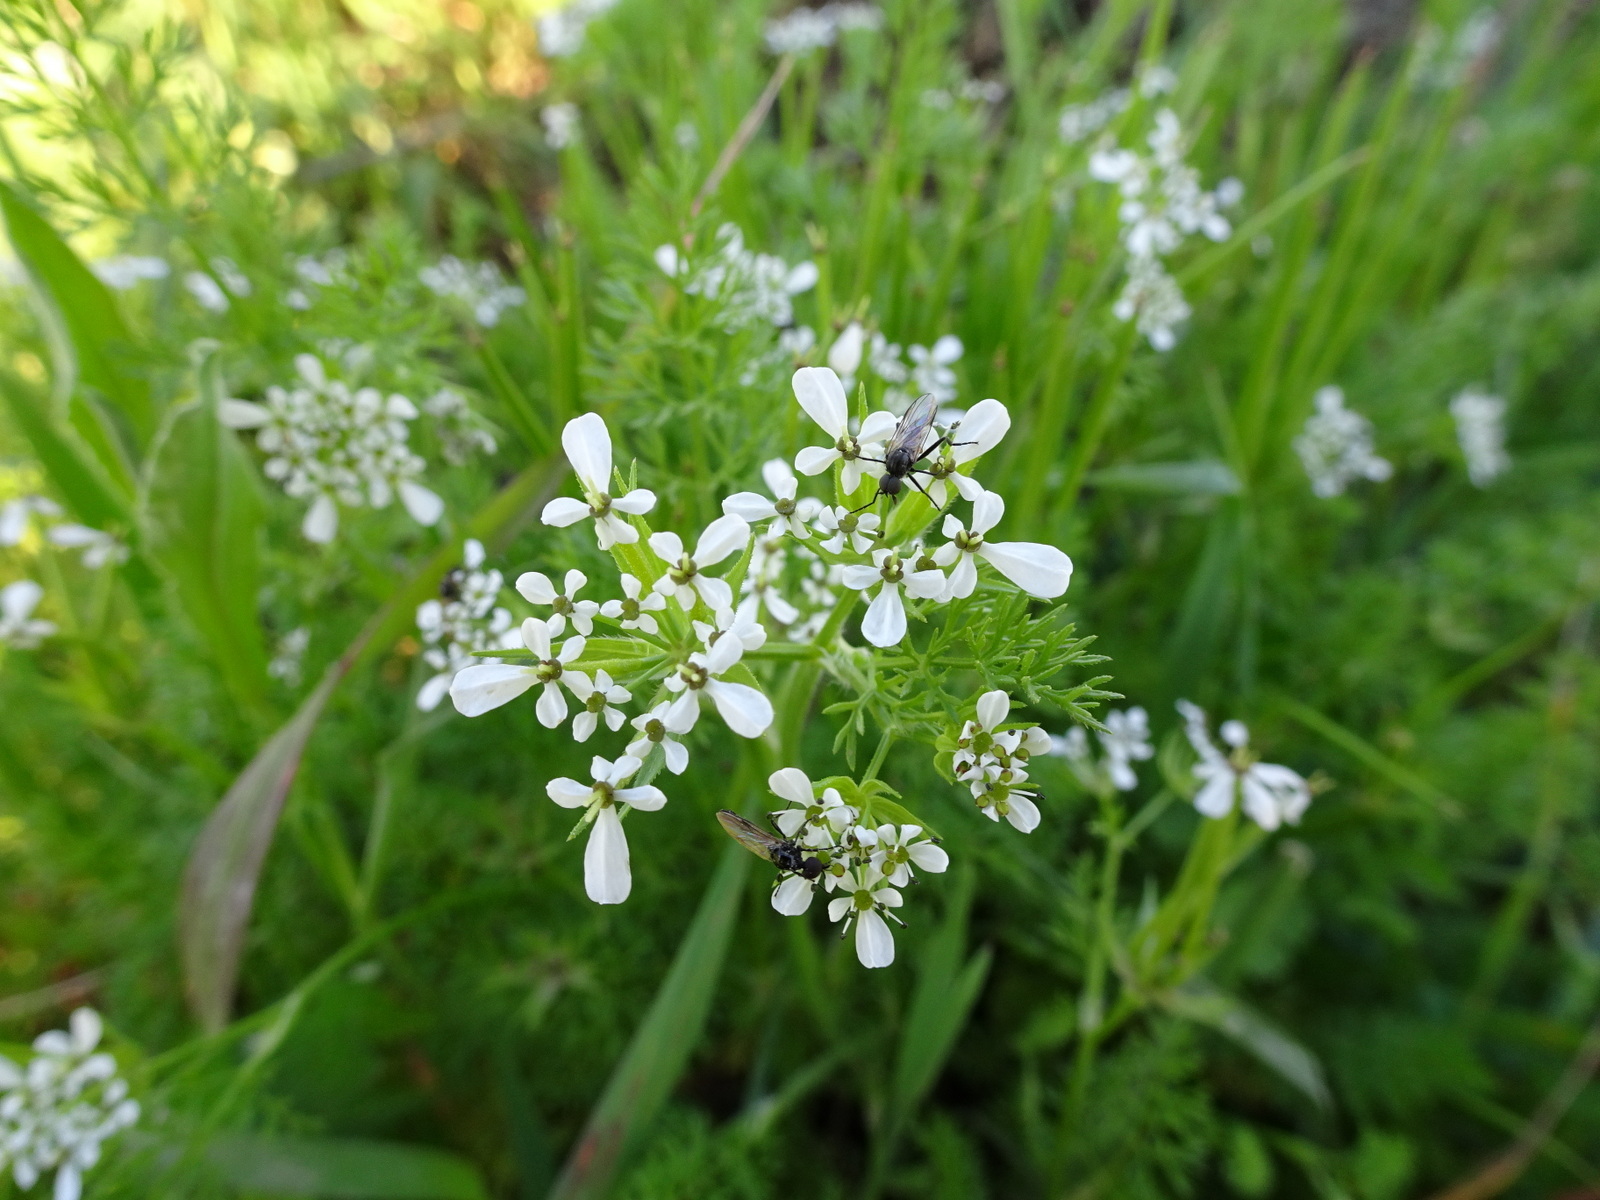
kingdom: Plantae
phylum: Tracheophyta
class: Magnoliopsida
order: Apiales
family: Apiaceae
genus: Scandix
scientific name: Scandix pecten-veneris
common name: Shepherd's-needle
